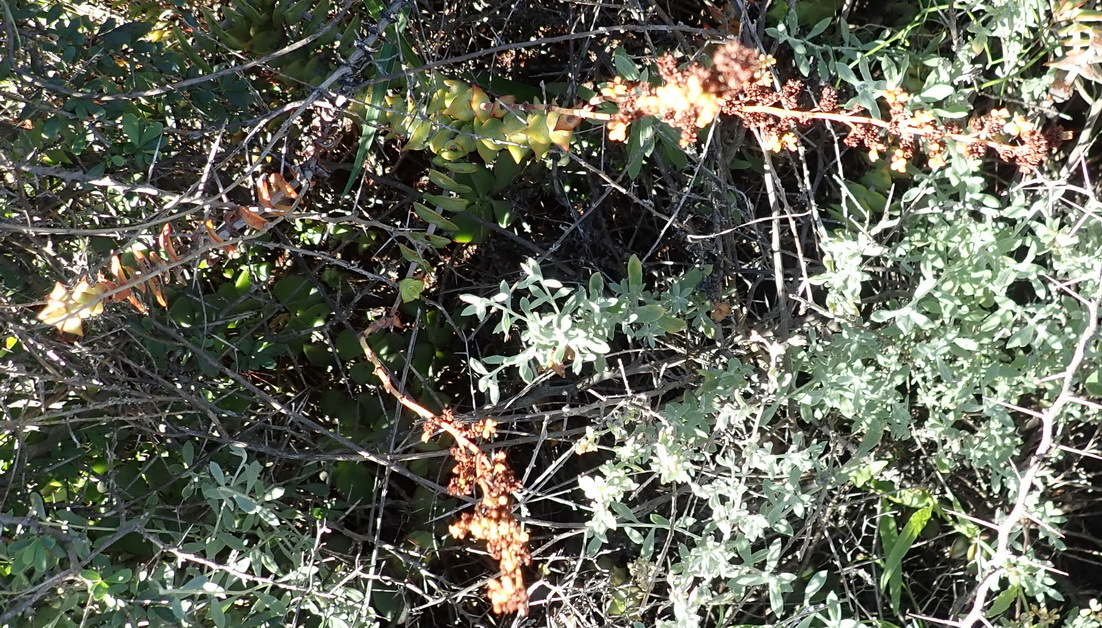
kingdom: Plantae
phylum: Tracheophyta
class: Magnoliopsida
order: Saxifragales
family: Crassulaceae
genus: Crassula
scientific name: Crassula perforata
